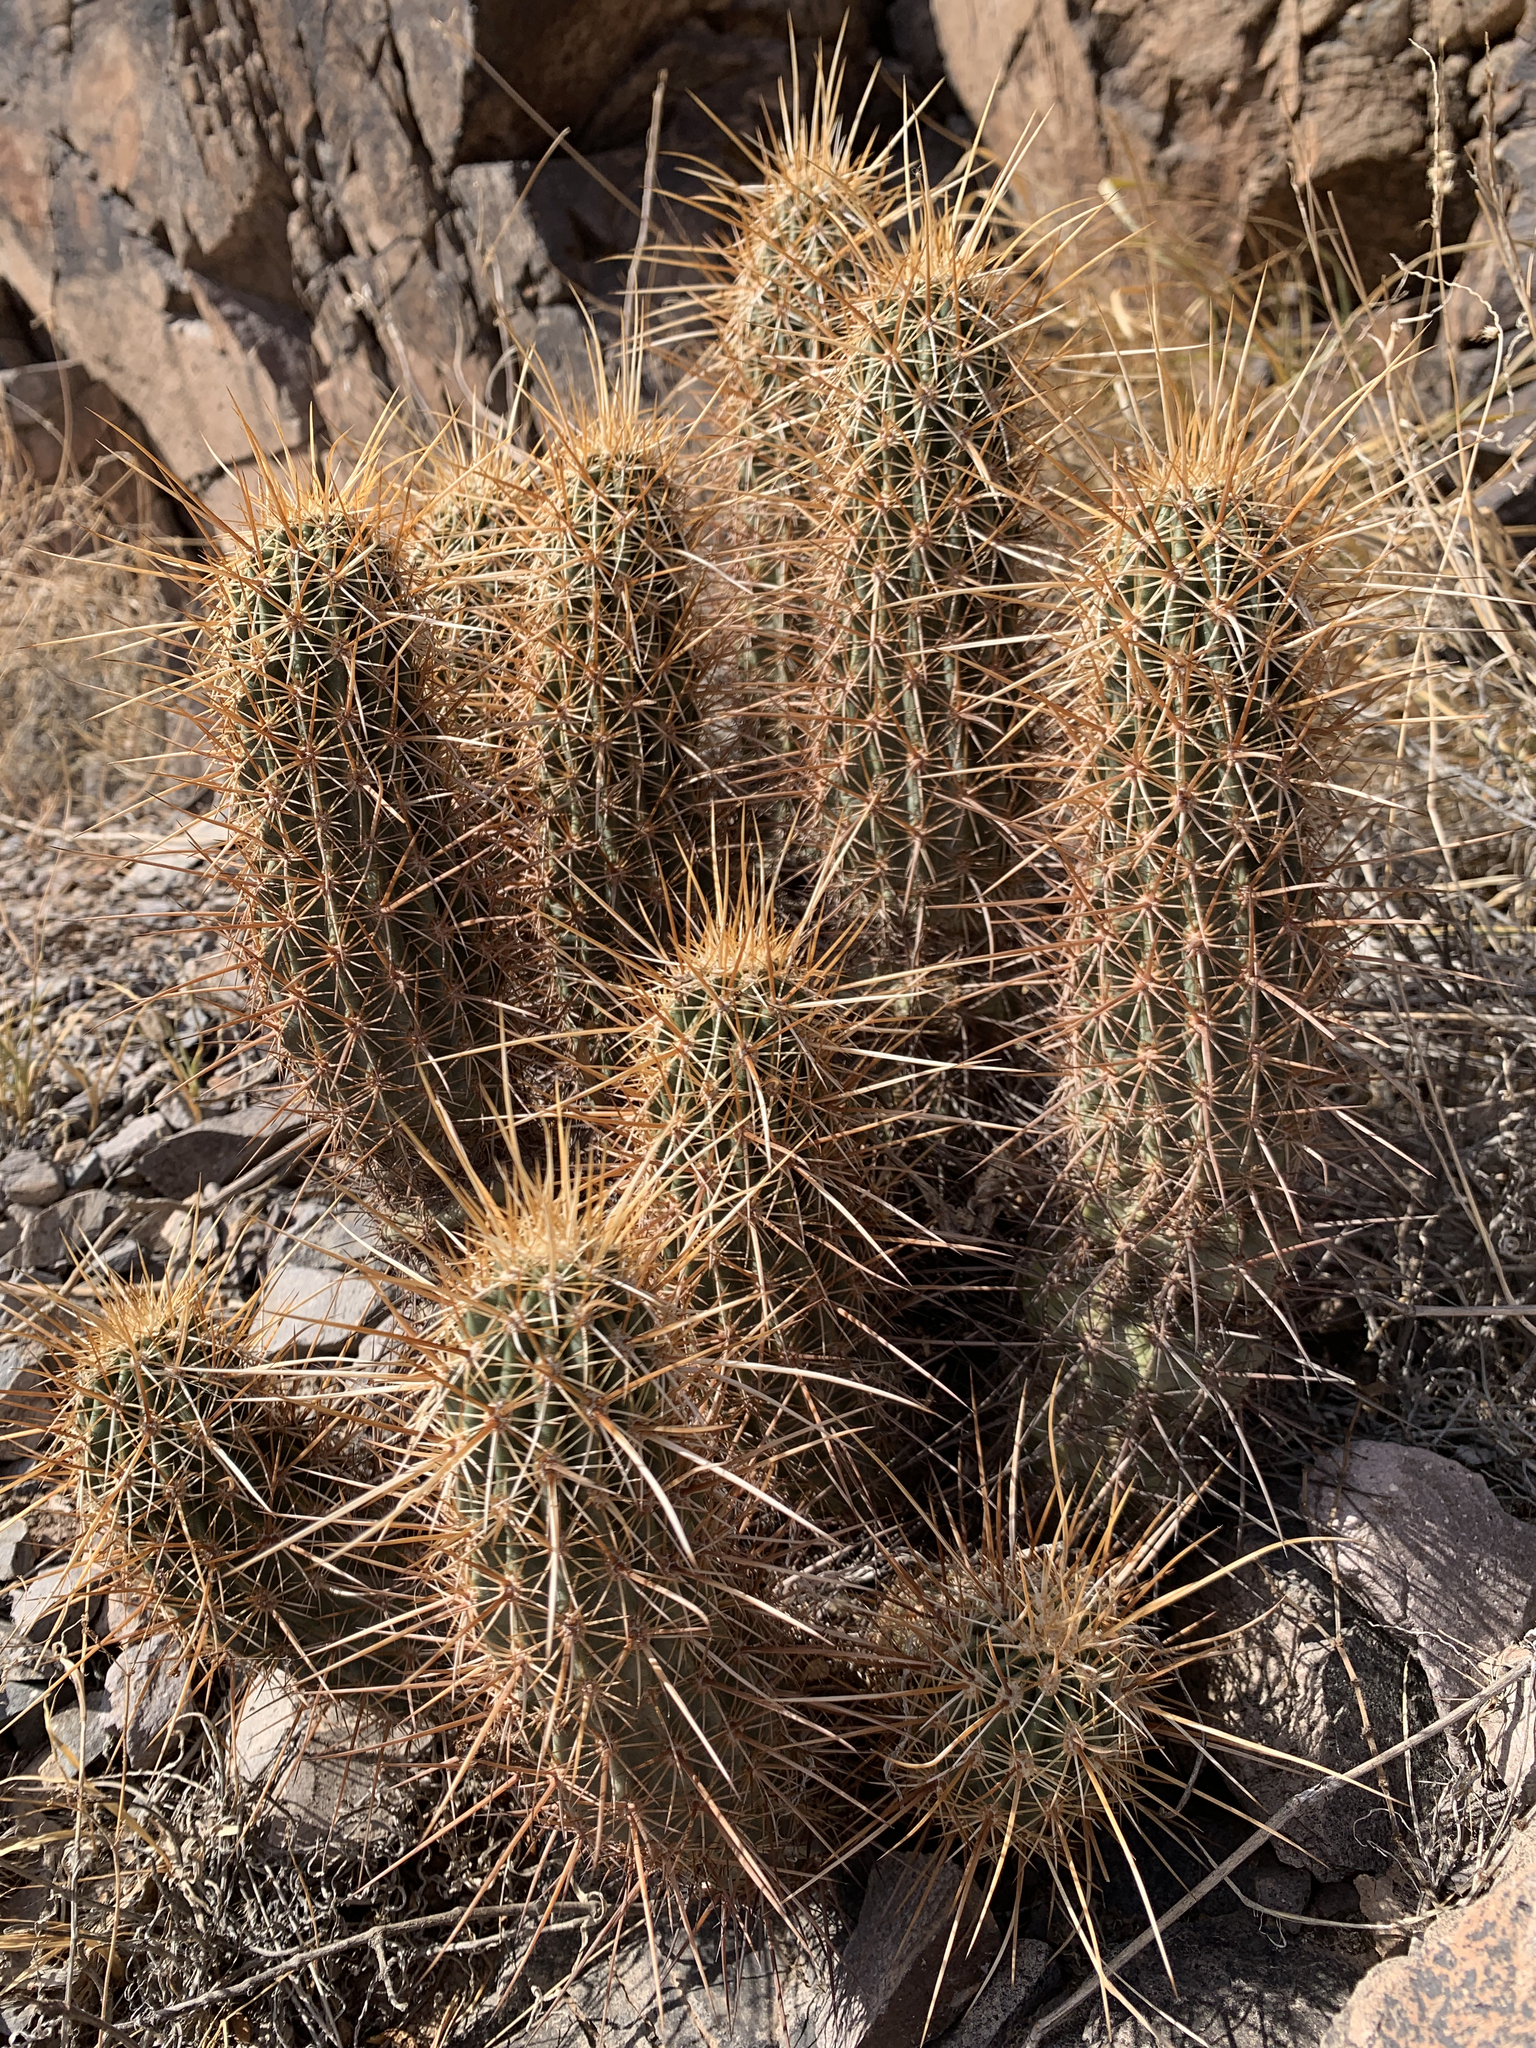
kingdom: Plantae
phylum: Tracheophyta
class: Magnoliopsida
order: Caryophyllales
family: Cactaceae
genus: Echinocereus
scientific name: Echinocereus engelmannii
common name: Engelmann's hedgehog cactus
